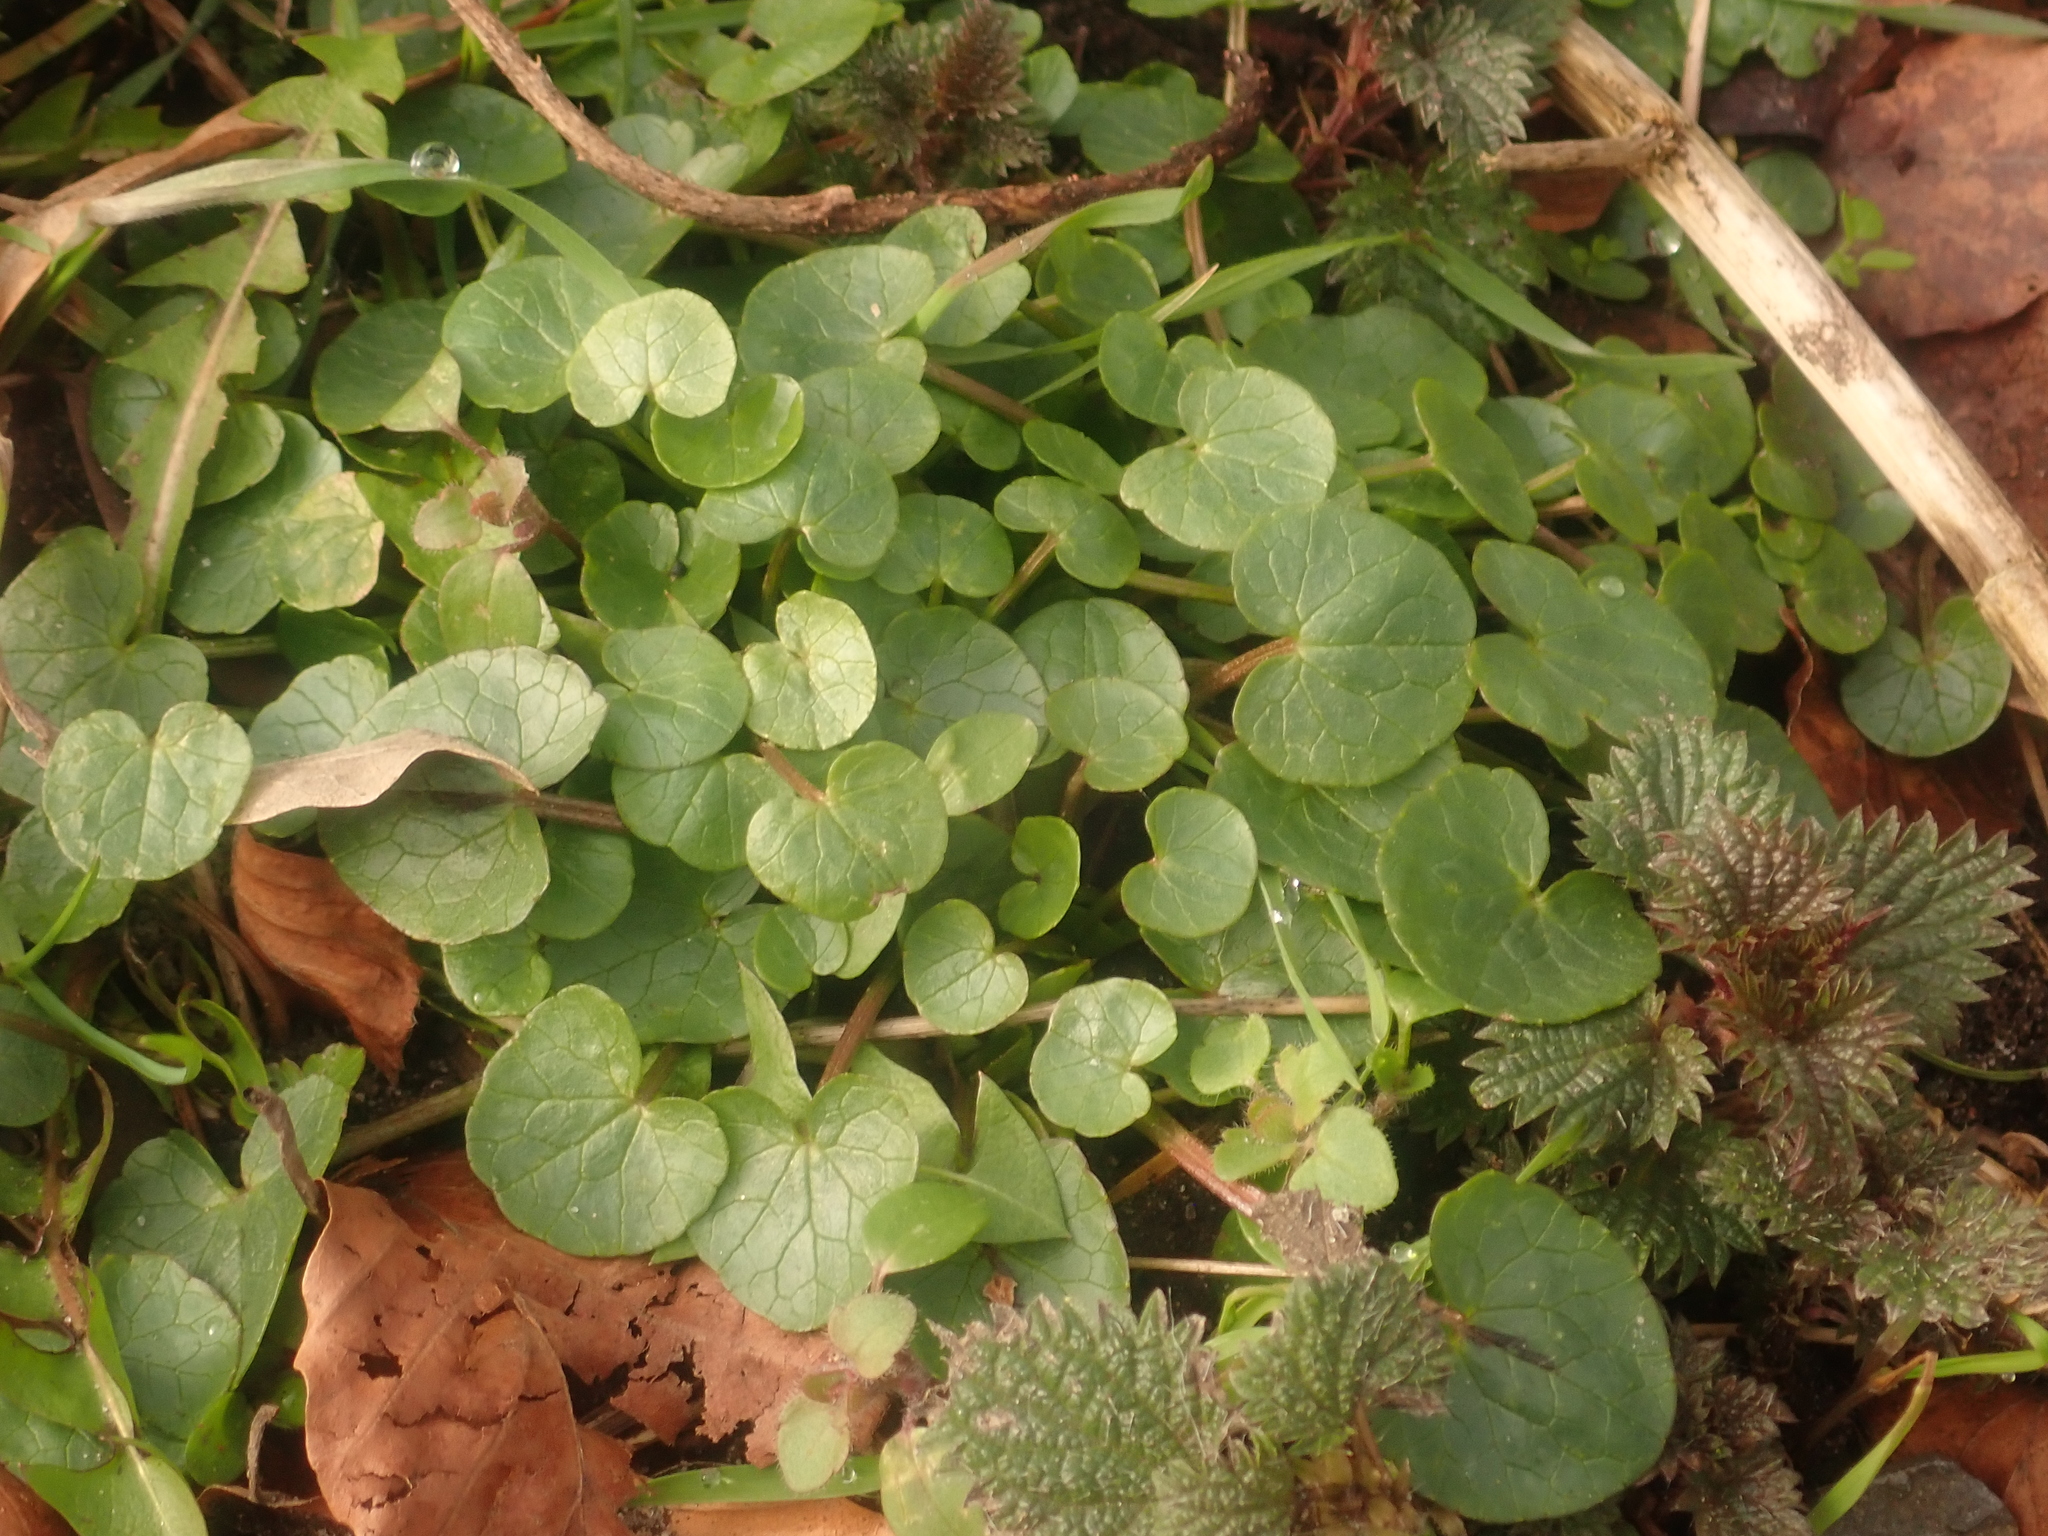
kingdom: Plantae
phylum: Tracheophyta
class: Magnoliopsida
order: Ranunculales
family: Ranunculaceae
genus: Ficaria
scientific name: Ficaria verna
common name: Lesser celandine
